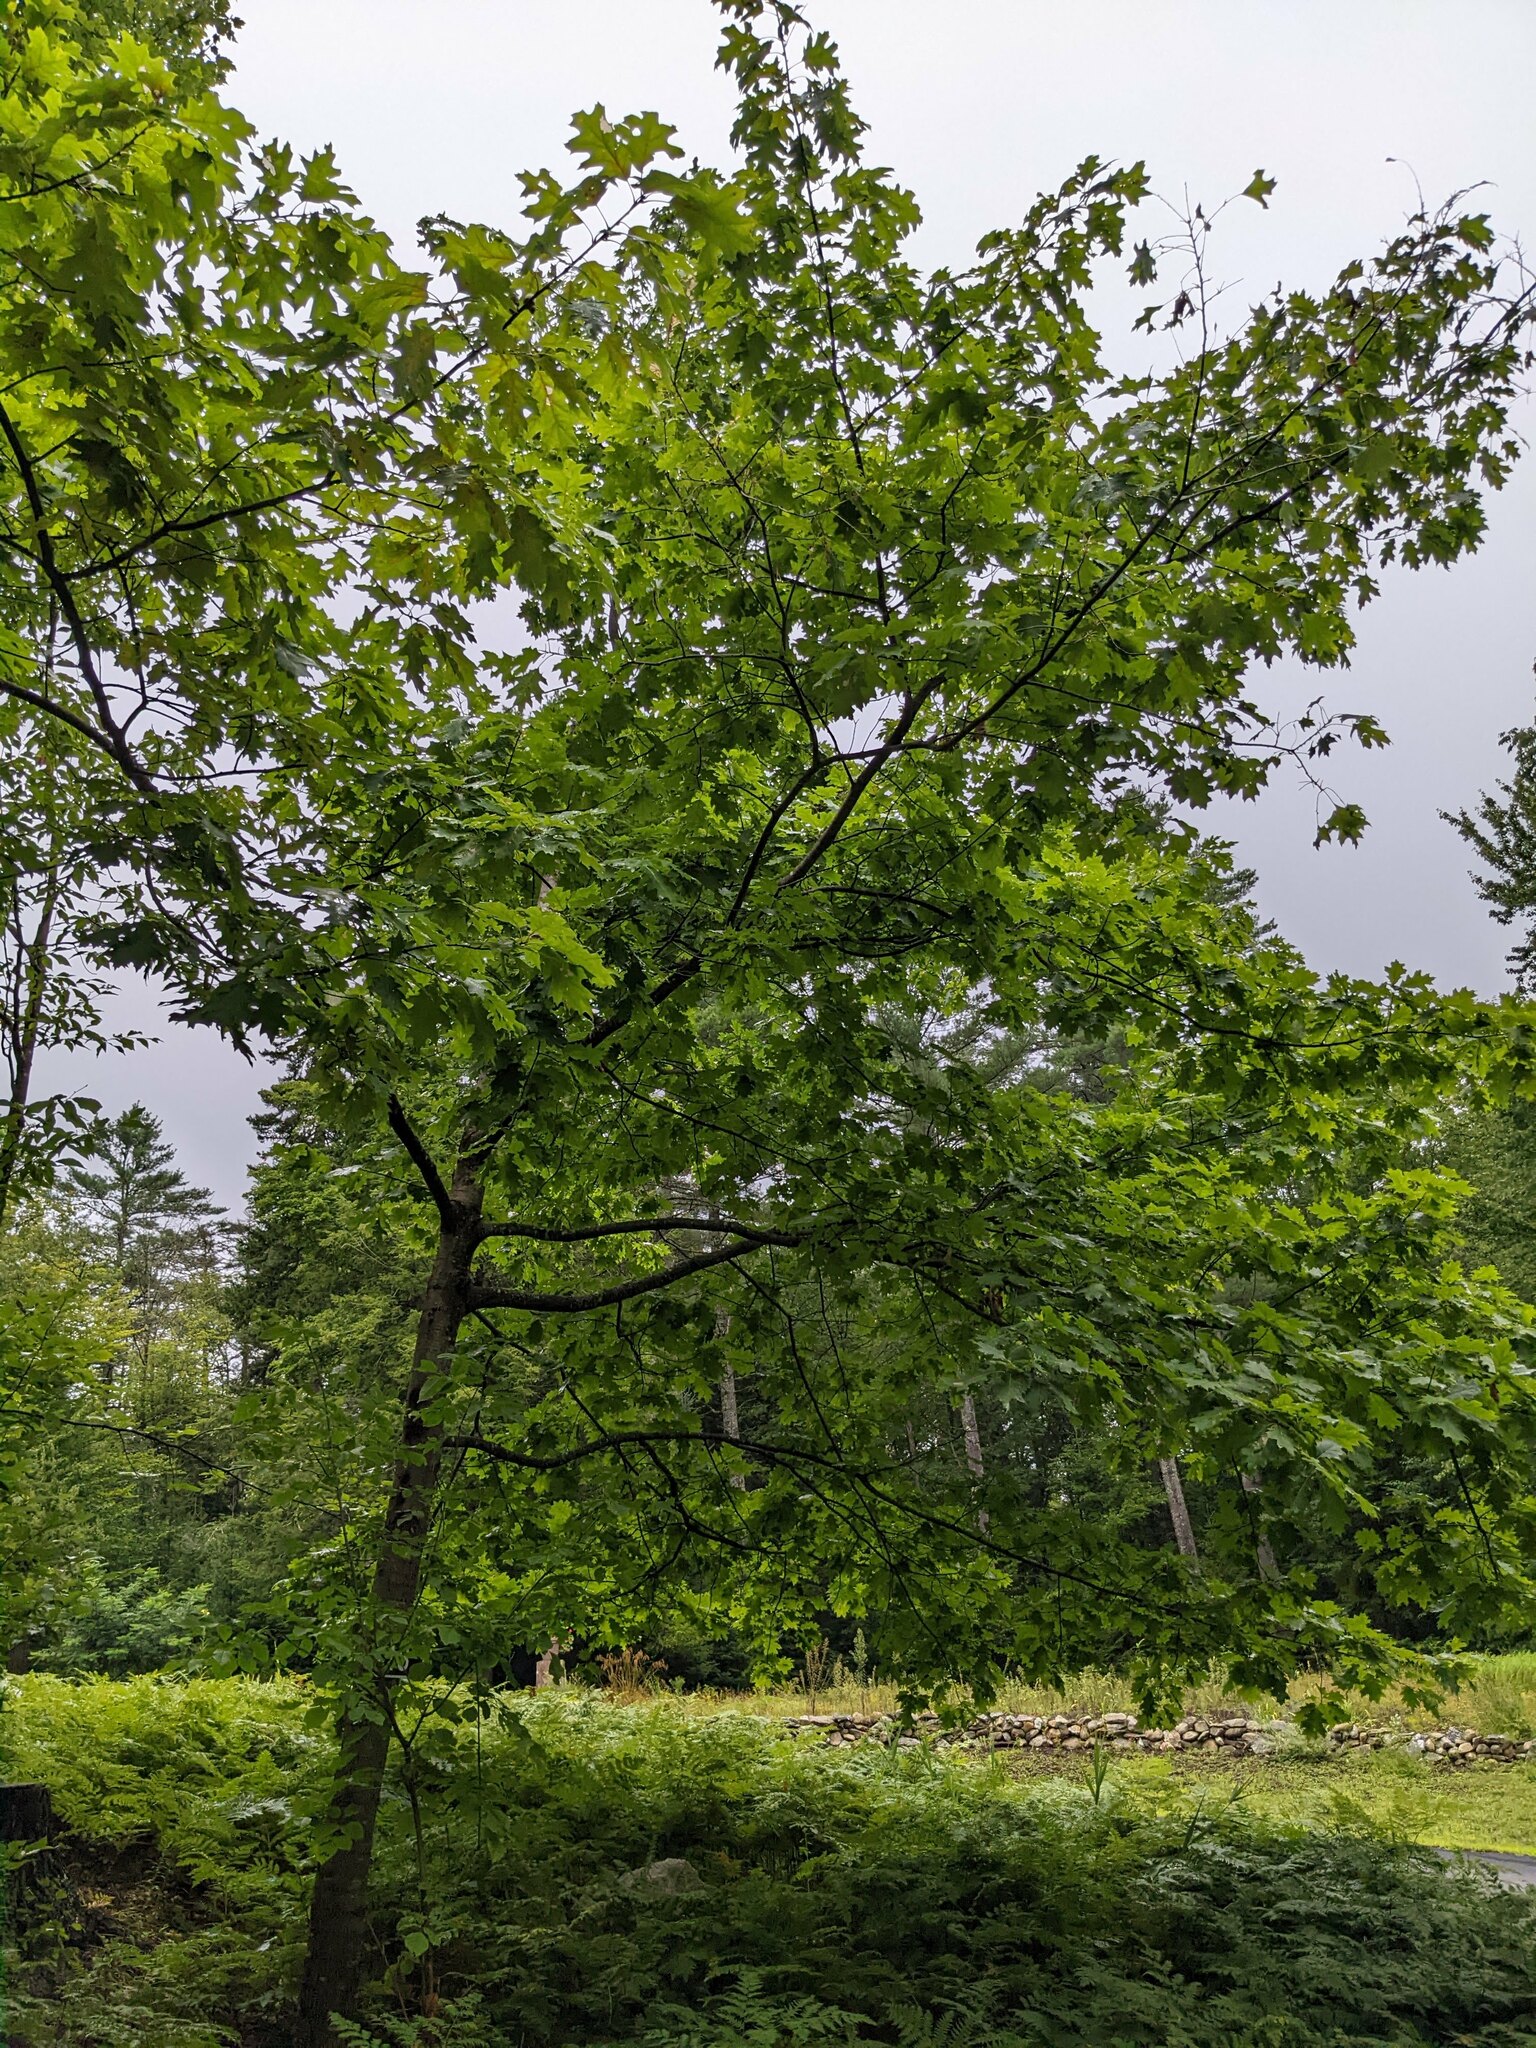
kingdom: Plantae
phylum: Tracheophyta
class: Magnoliopsida
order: Fagales
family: Fagaceae
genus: Quercus
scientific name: Quercus rubra
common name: Red oak
